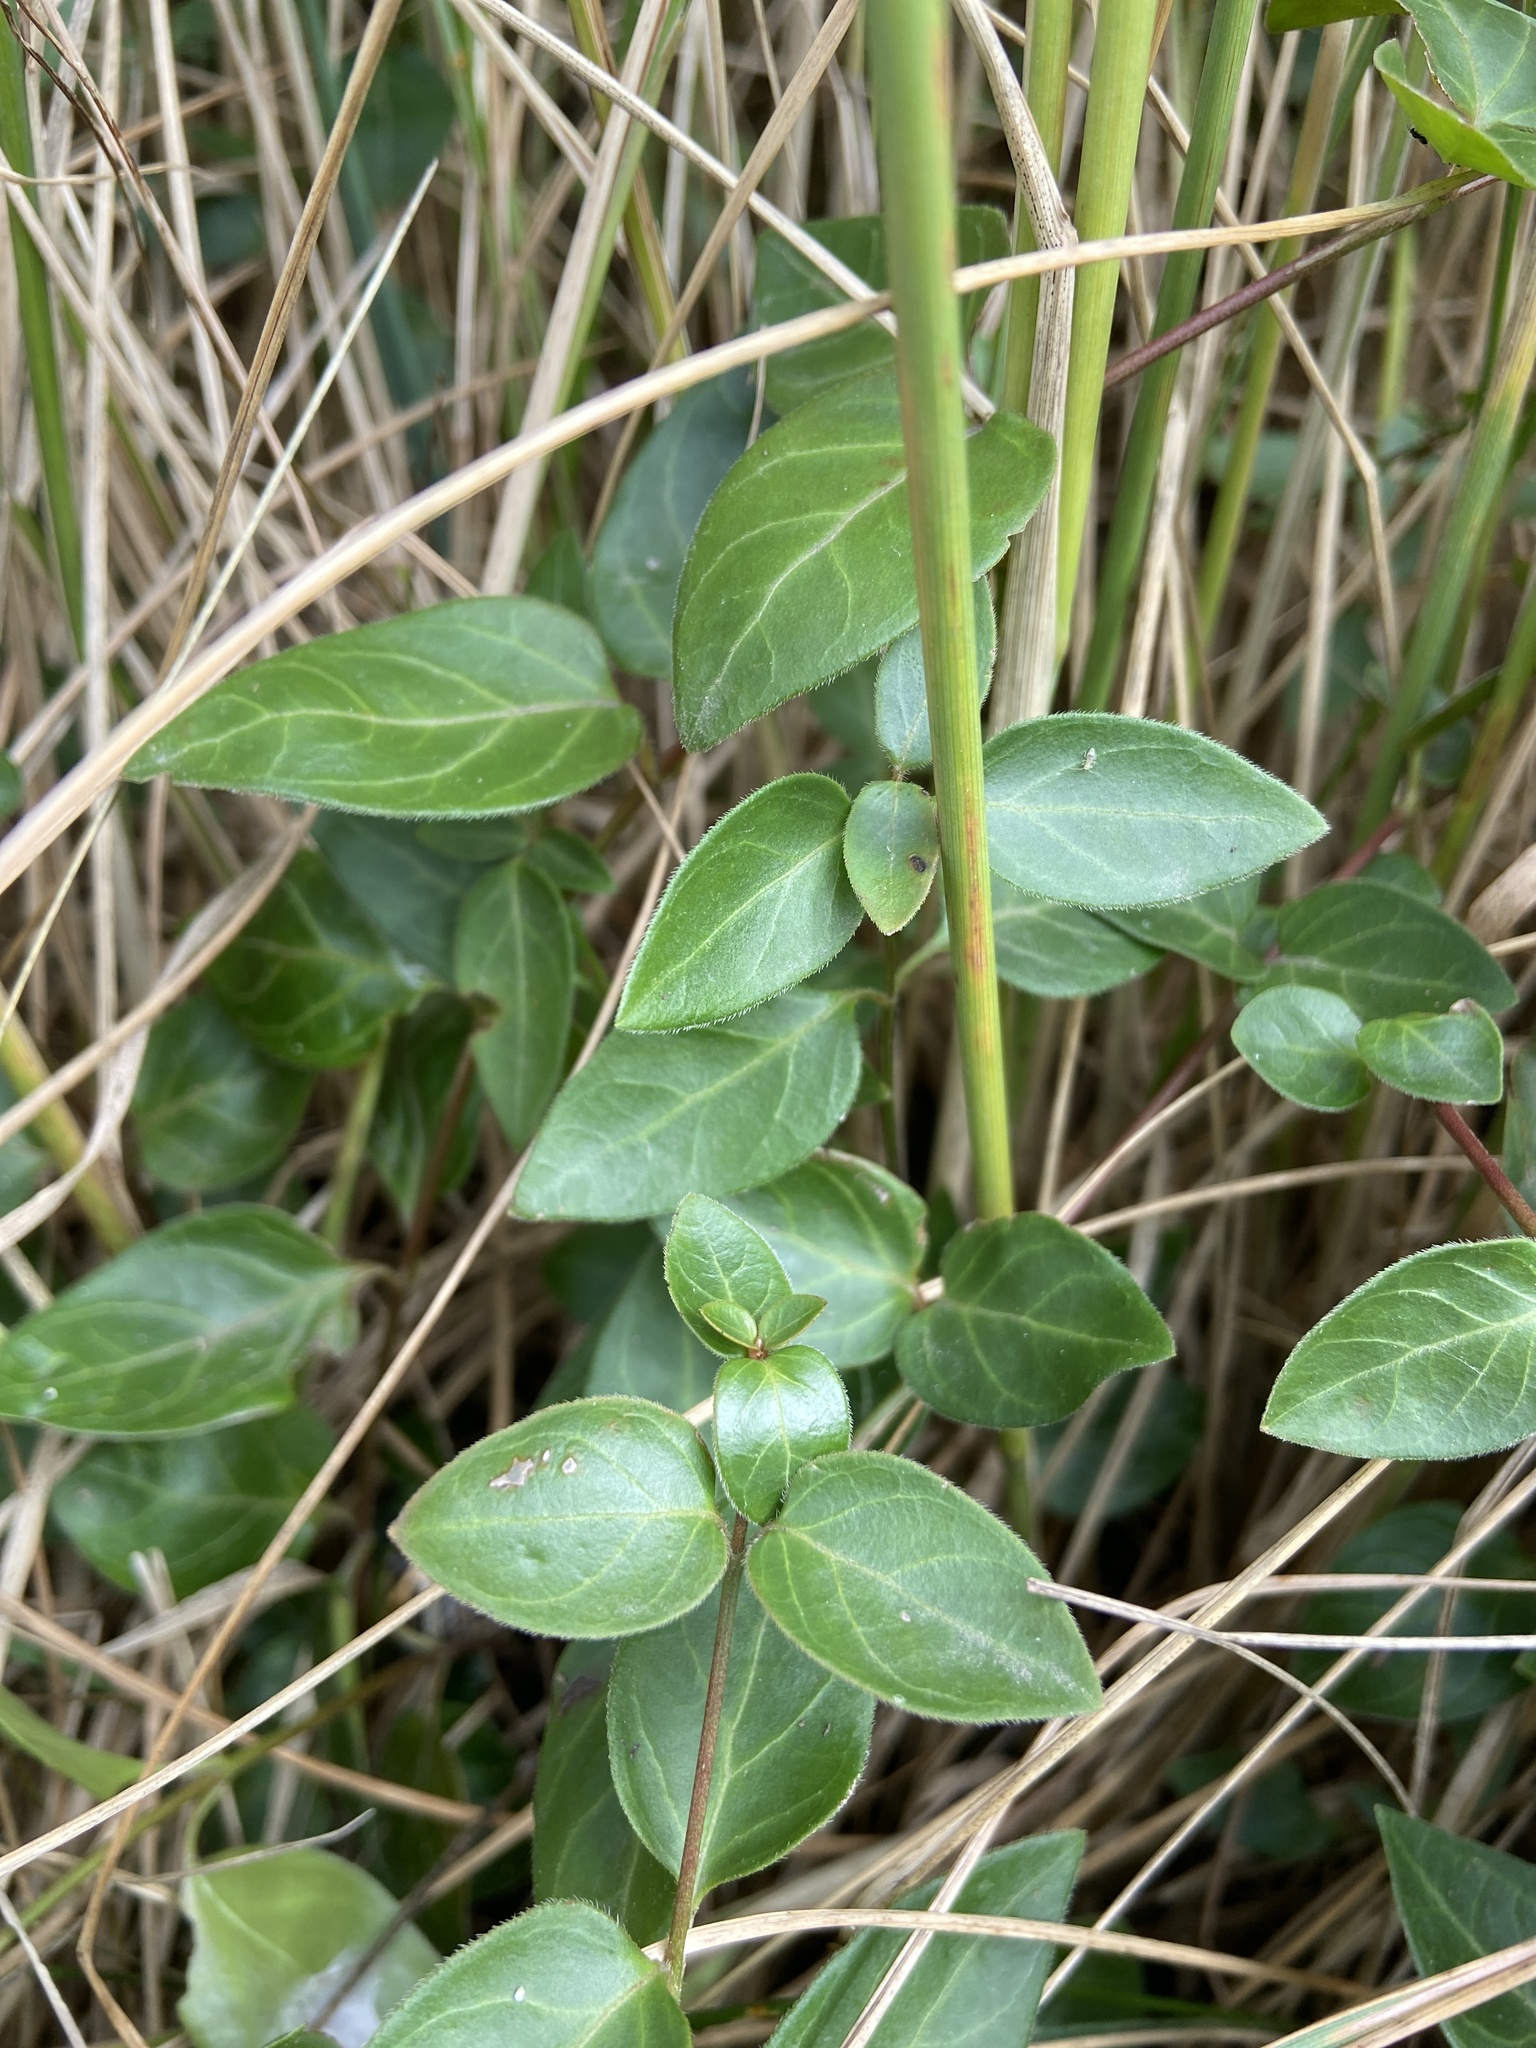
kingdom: Plantae
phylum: Tracheophyta
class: Magnoliopsida
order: Gentianales
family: Apocynaceae
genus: Vincetoxicum
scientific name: Vincetoxicum hirundinaria
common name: White swallowwort
